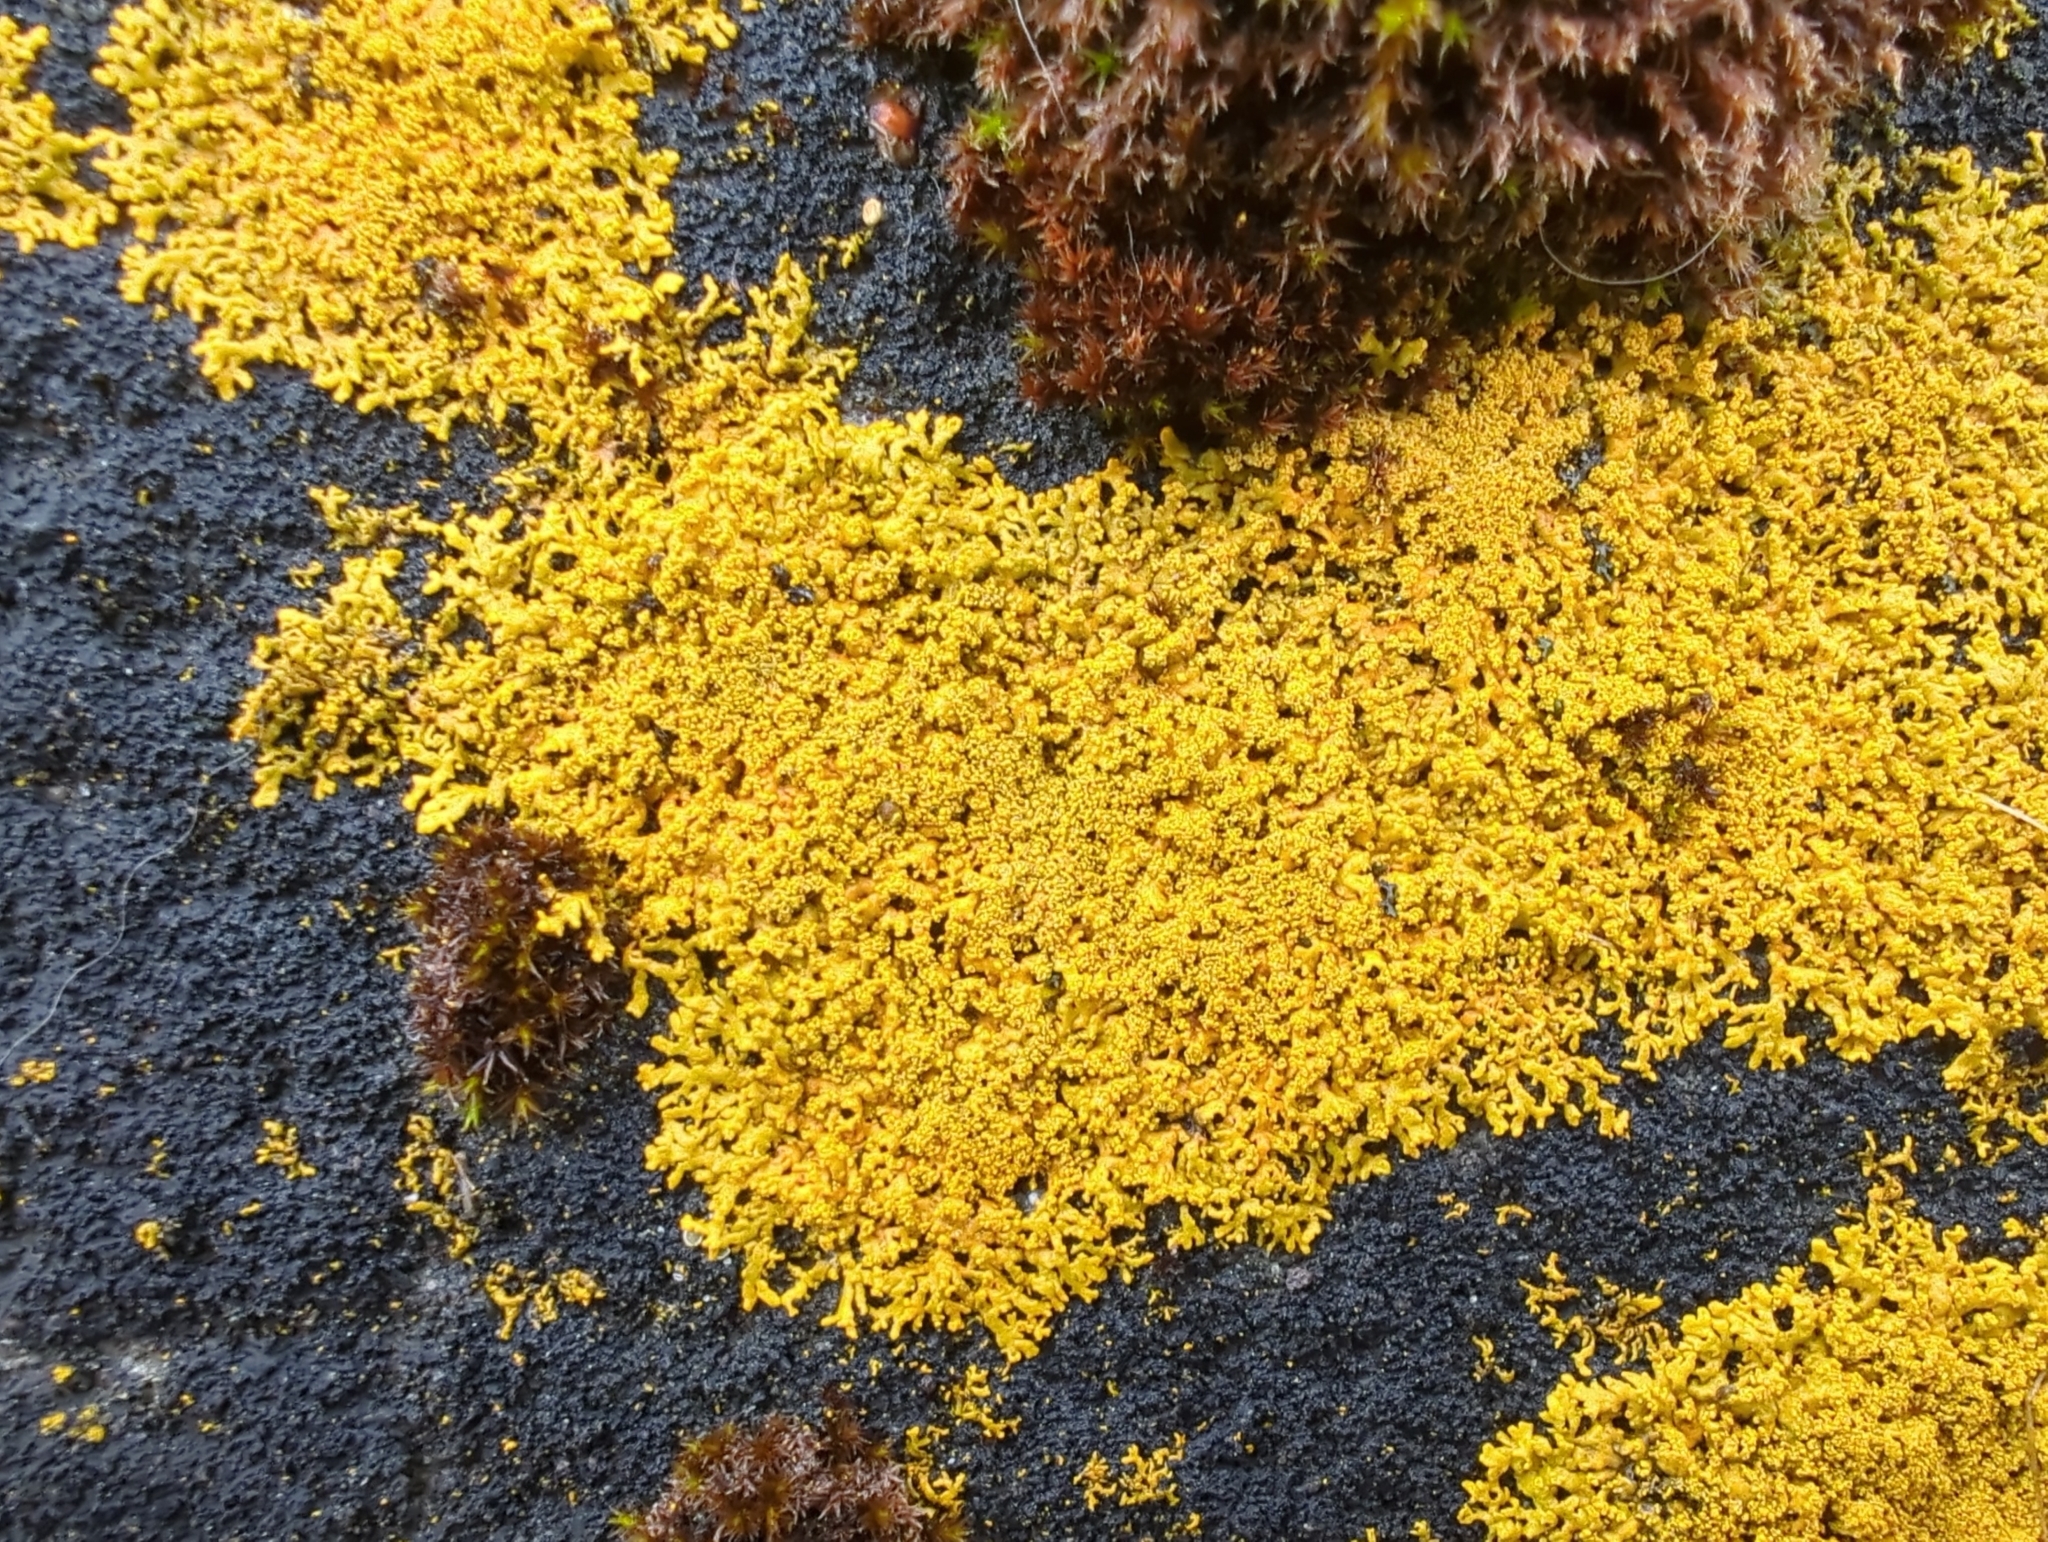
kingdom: Fungi
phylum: Ascomycota
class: Lecanoromycetes
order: Teloschistales
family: Teloschistaceae
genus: Rusavskia
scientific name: Rusavskia sorediata
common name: Sugared sunburst lichen
